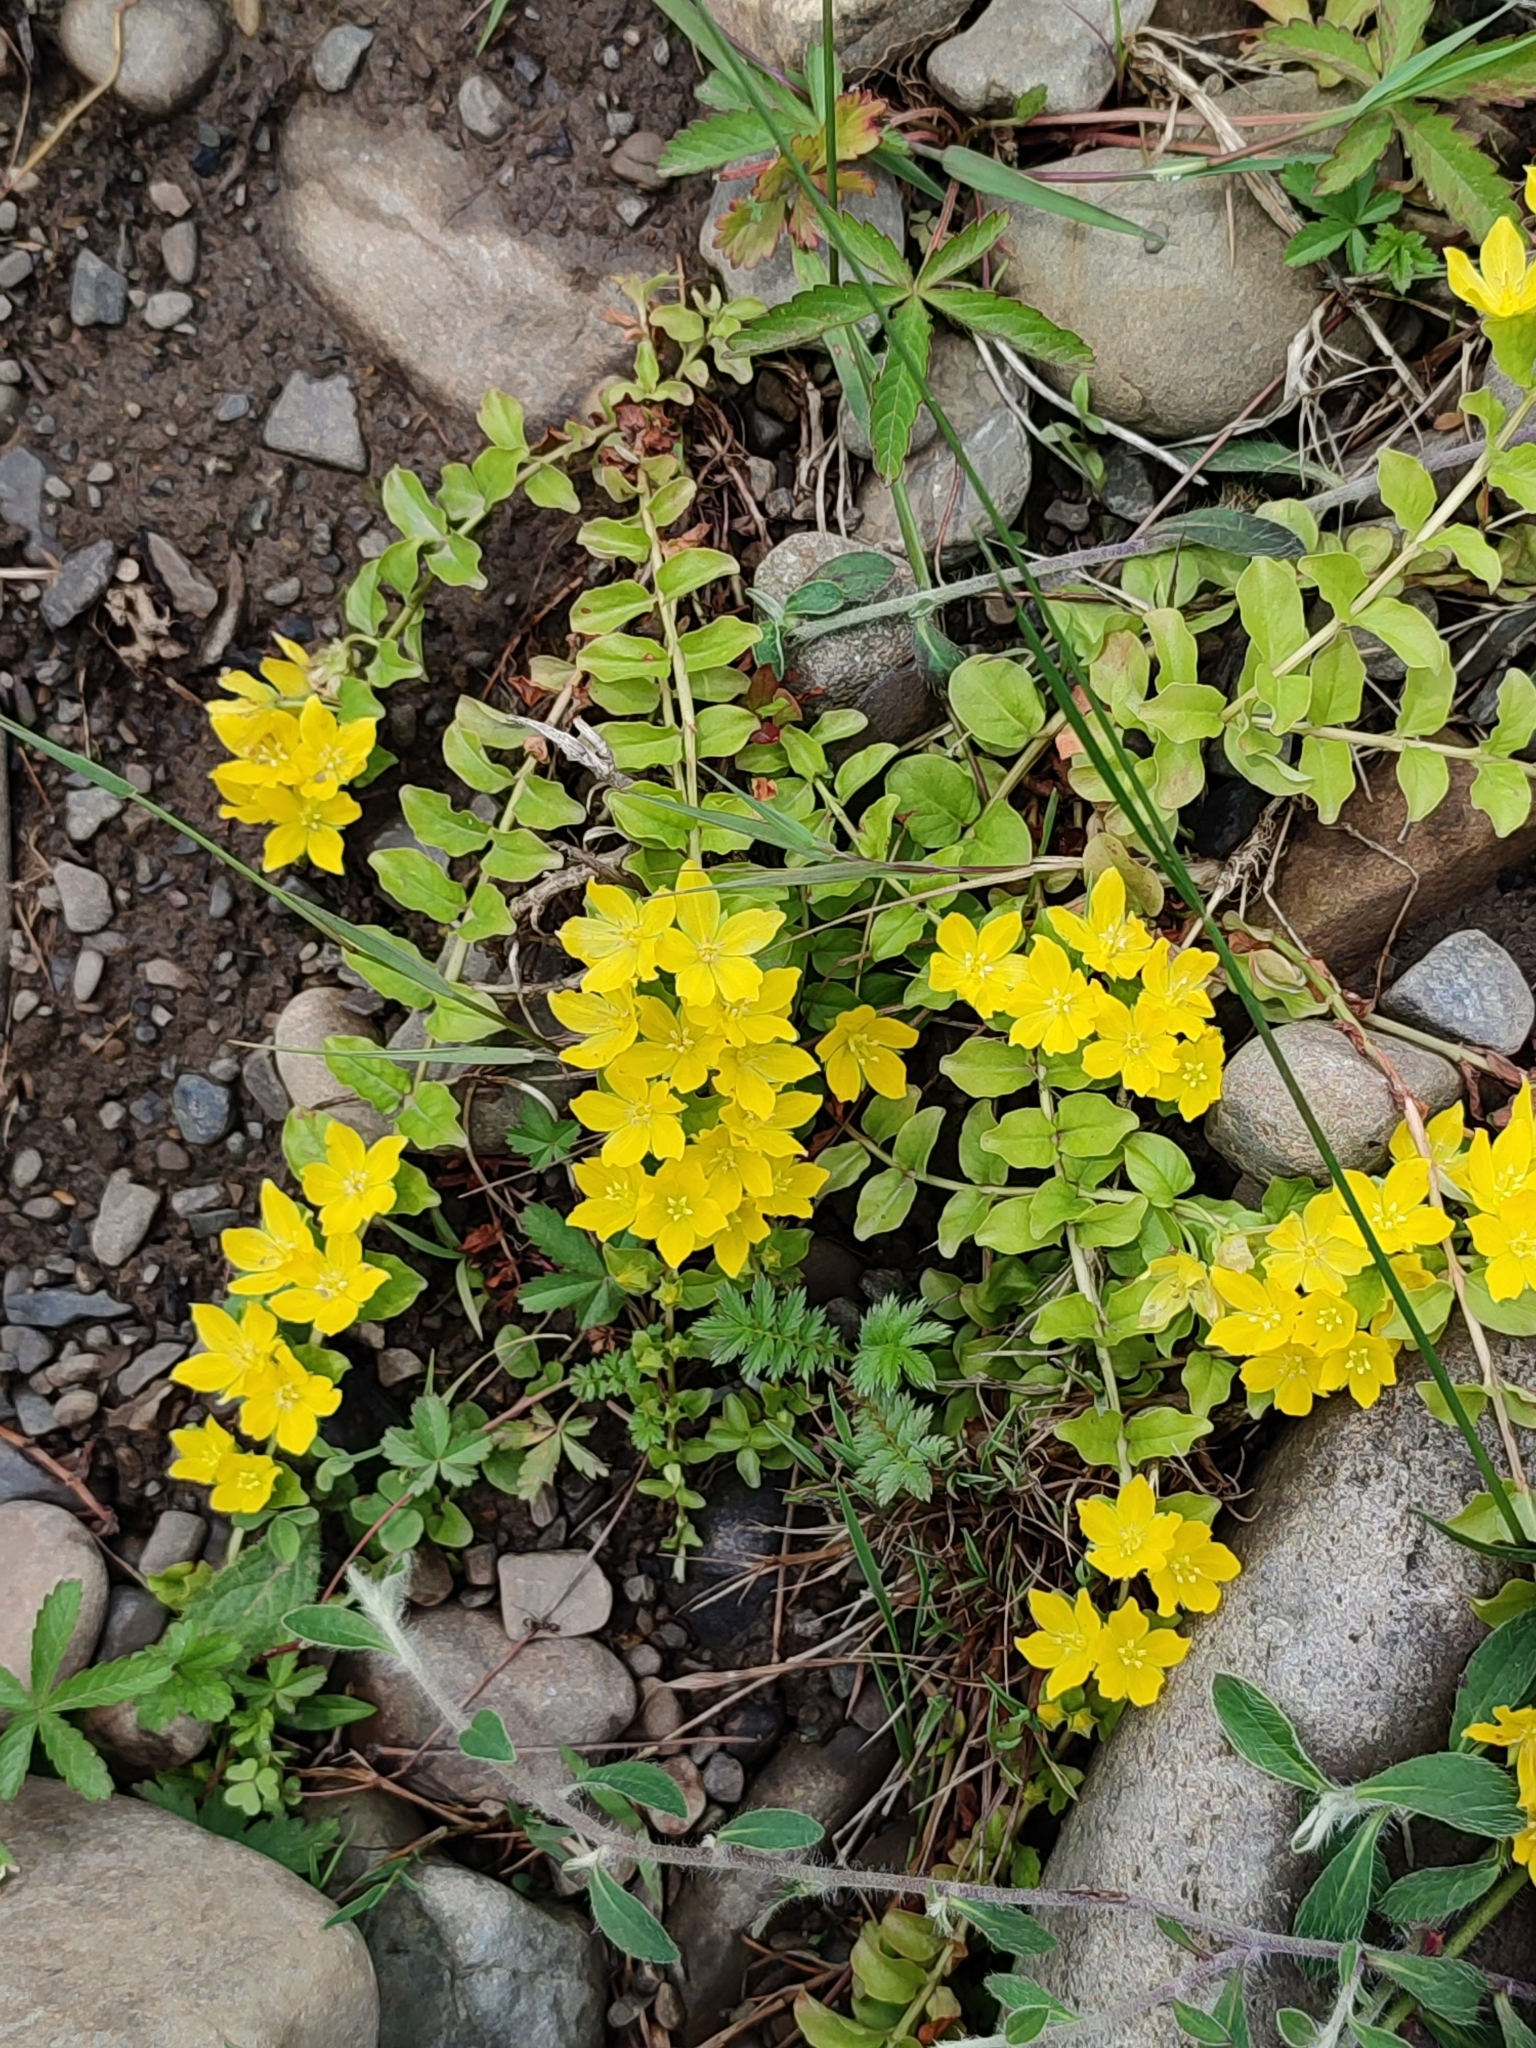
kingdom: Plantae
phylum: Tracheophyta
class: Magnoliopsida
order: Ericales
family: Primulaceae
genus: Lysimachia
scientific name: Lysimachia nummularia
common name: Moneywort
